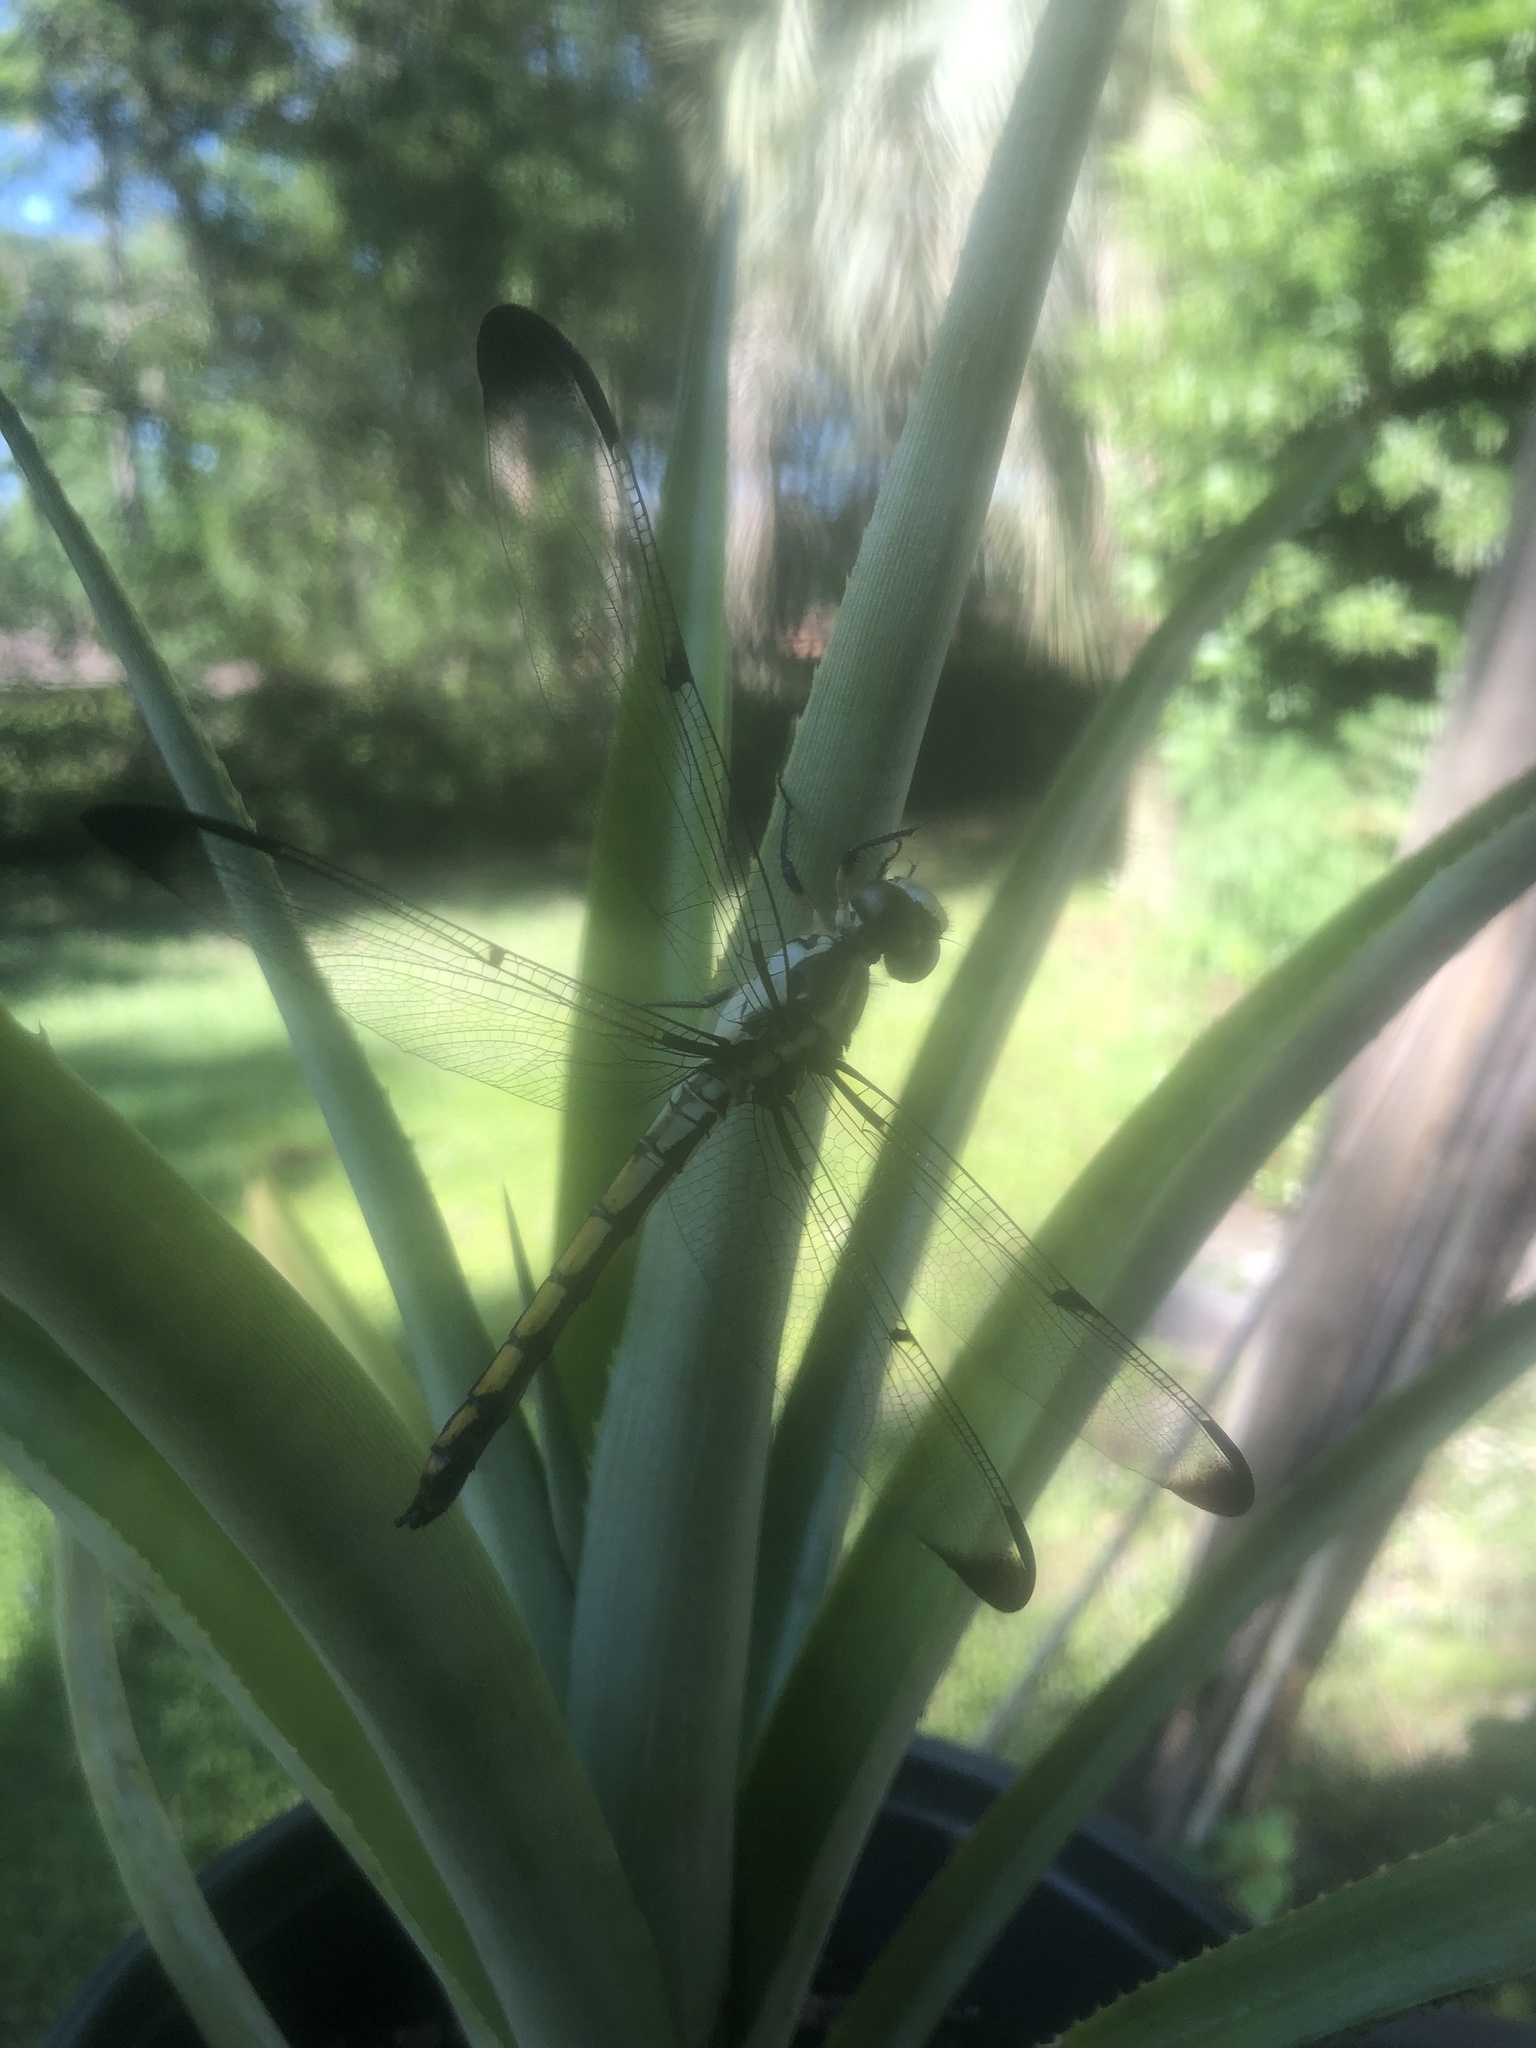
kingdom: Animalia
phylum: Arthropoda
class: Insecta
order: Odonata
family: Libellulidae
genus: Libellula
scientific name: Libellula vibrans
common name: Great blue skimmer
